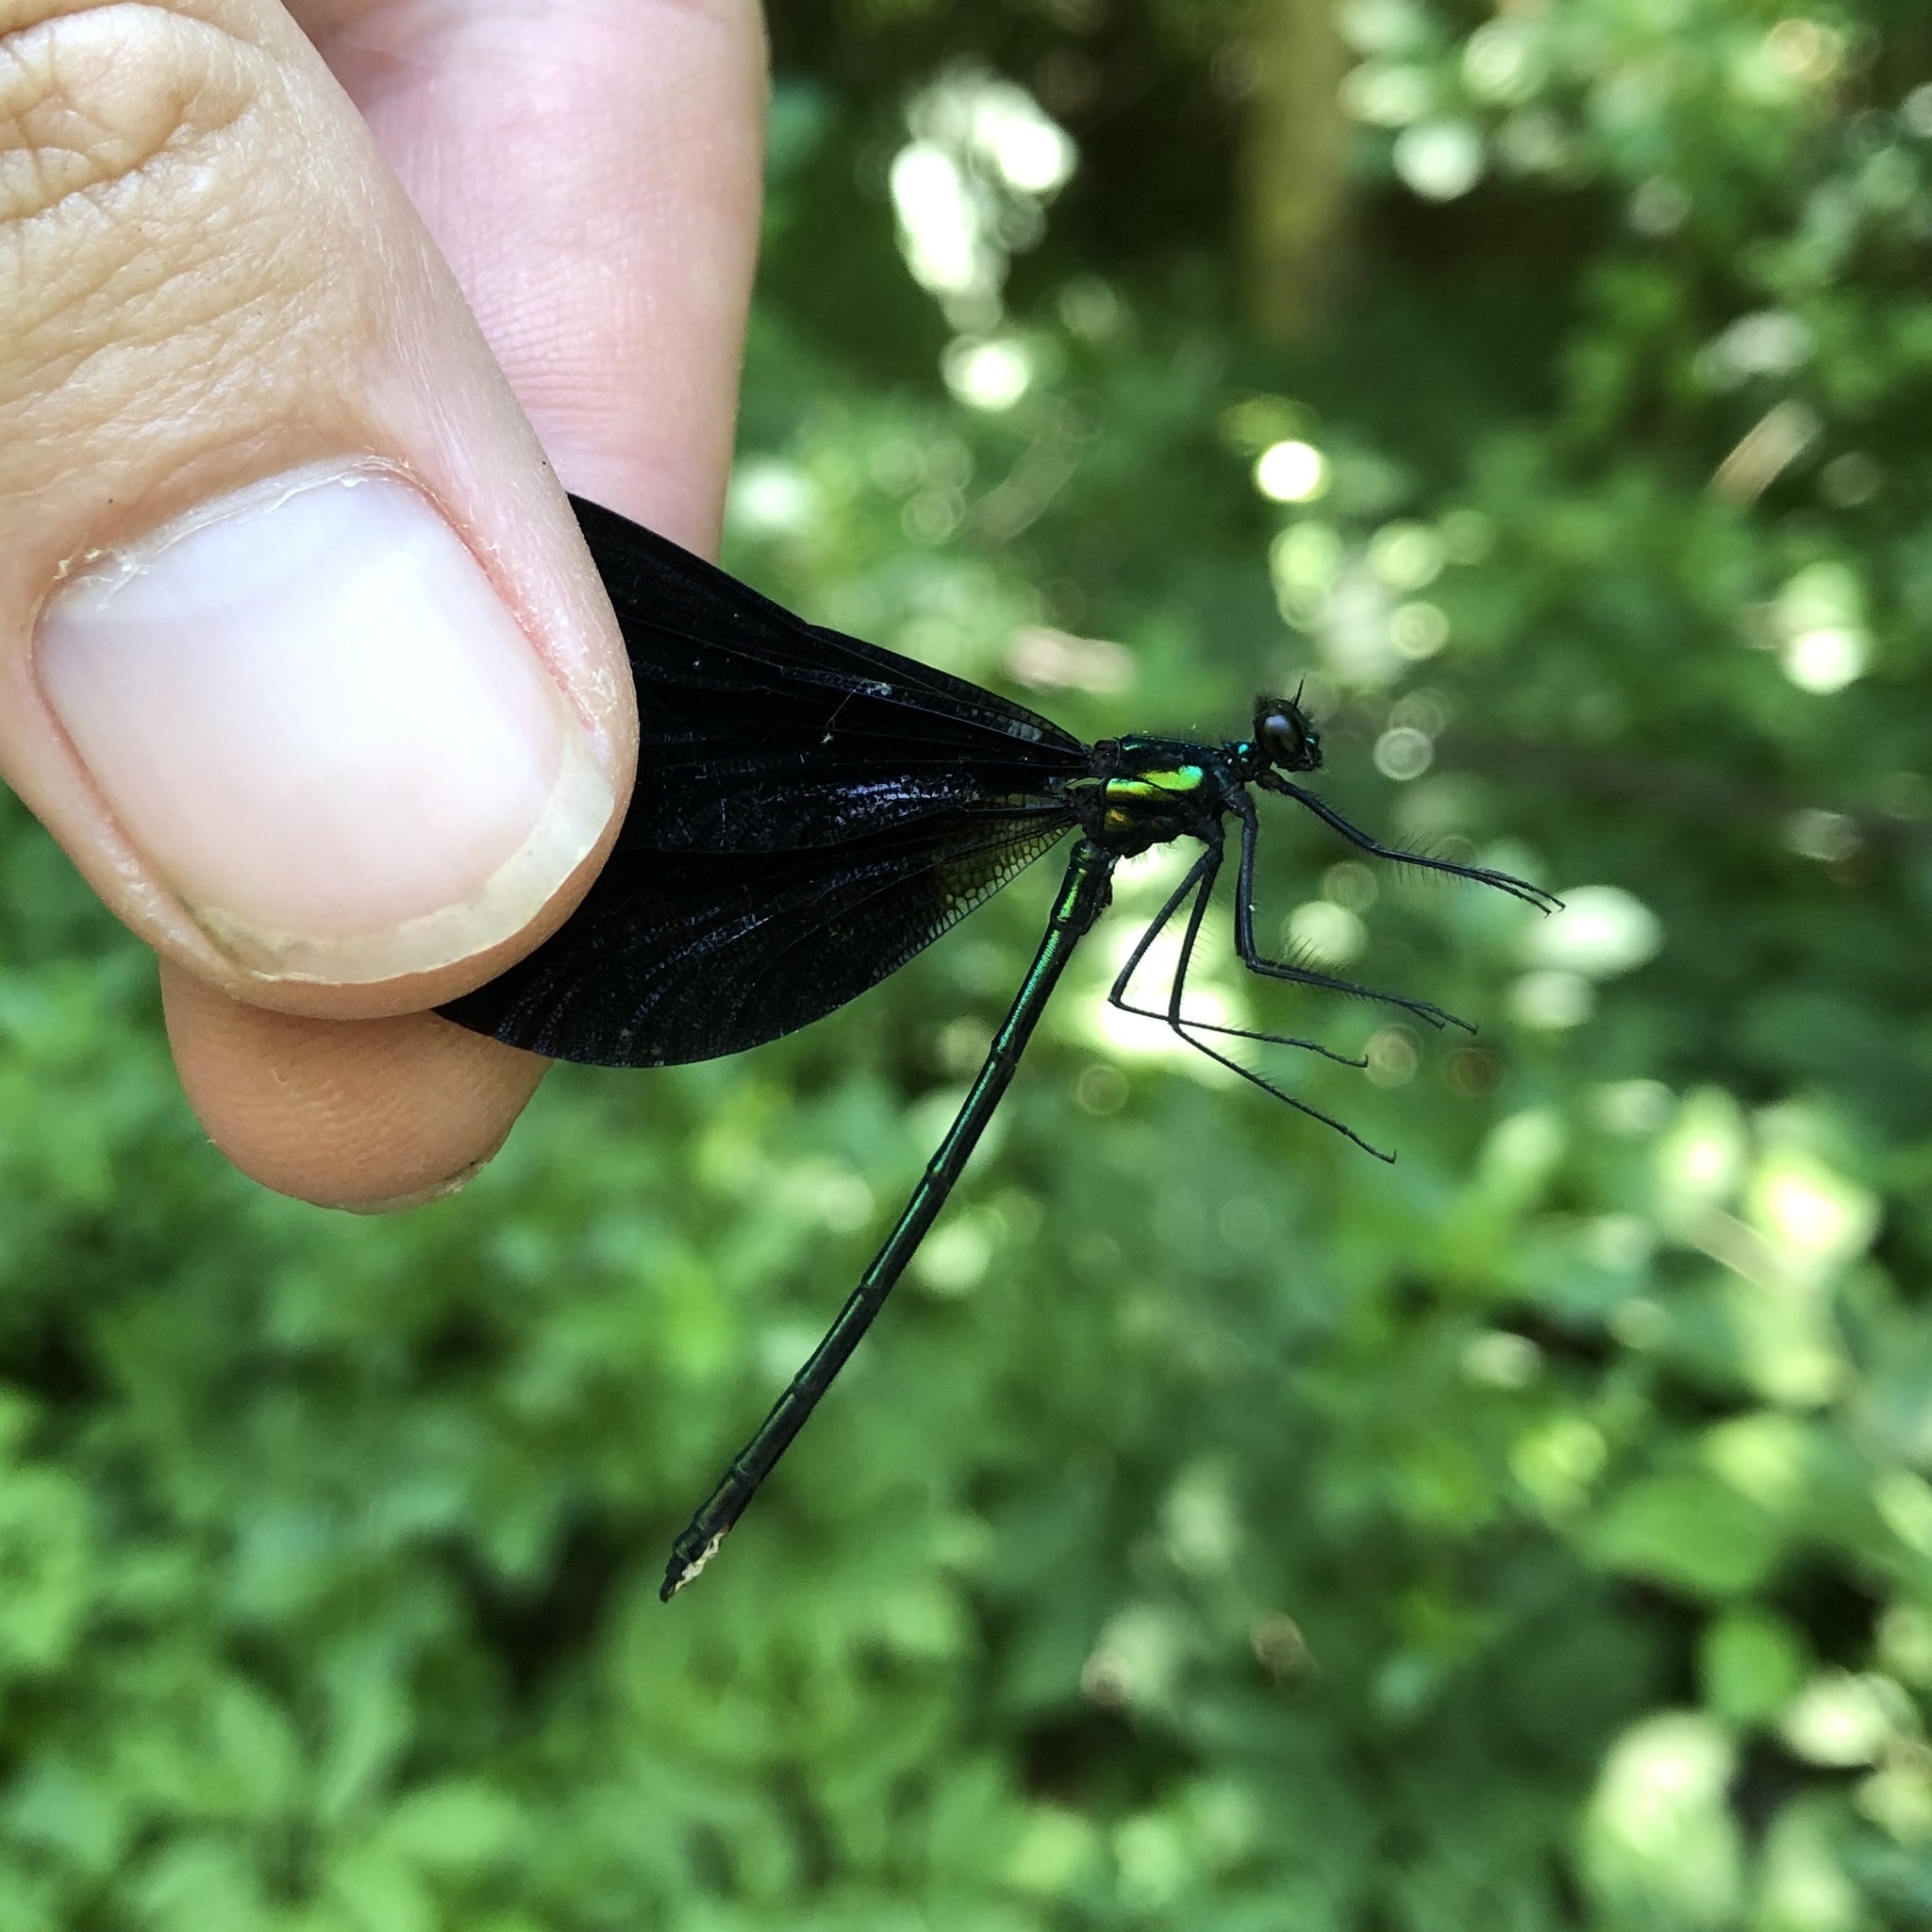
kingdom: Animalia
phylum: Arthropoda
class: Insecta
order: Odonata
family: Calopterygidae
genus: Calopteryx
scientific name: Calopteryx maculata
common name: Ebony jewelwing
